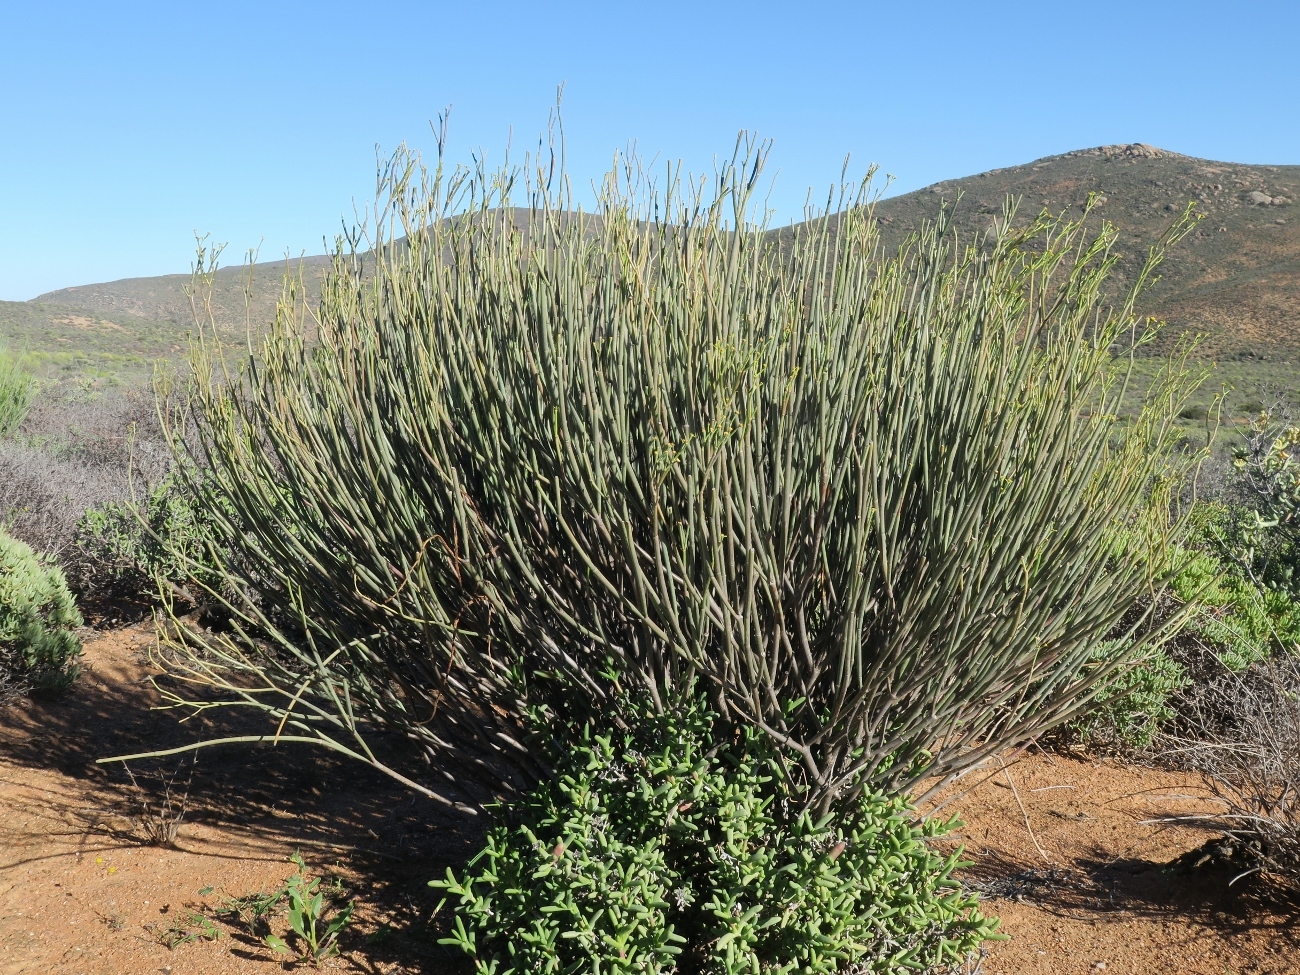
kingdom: Plantae
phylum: Tracheophyta
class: Magnoliopsida
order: Malpighiales
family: Euphorbiaceae
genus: Euphorbia
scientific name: Euphorbia ephedroides
